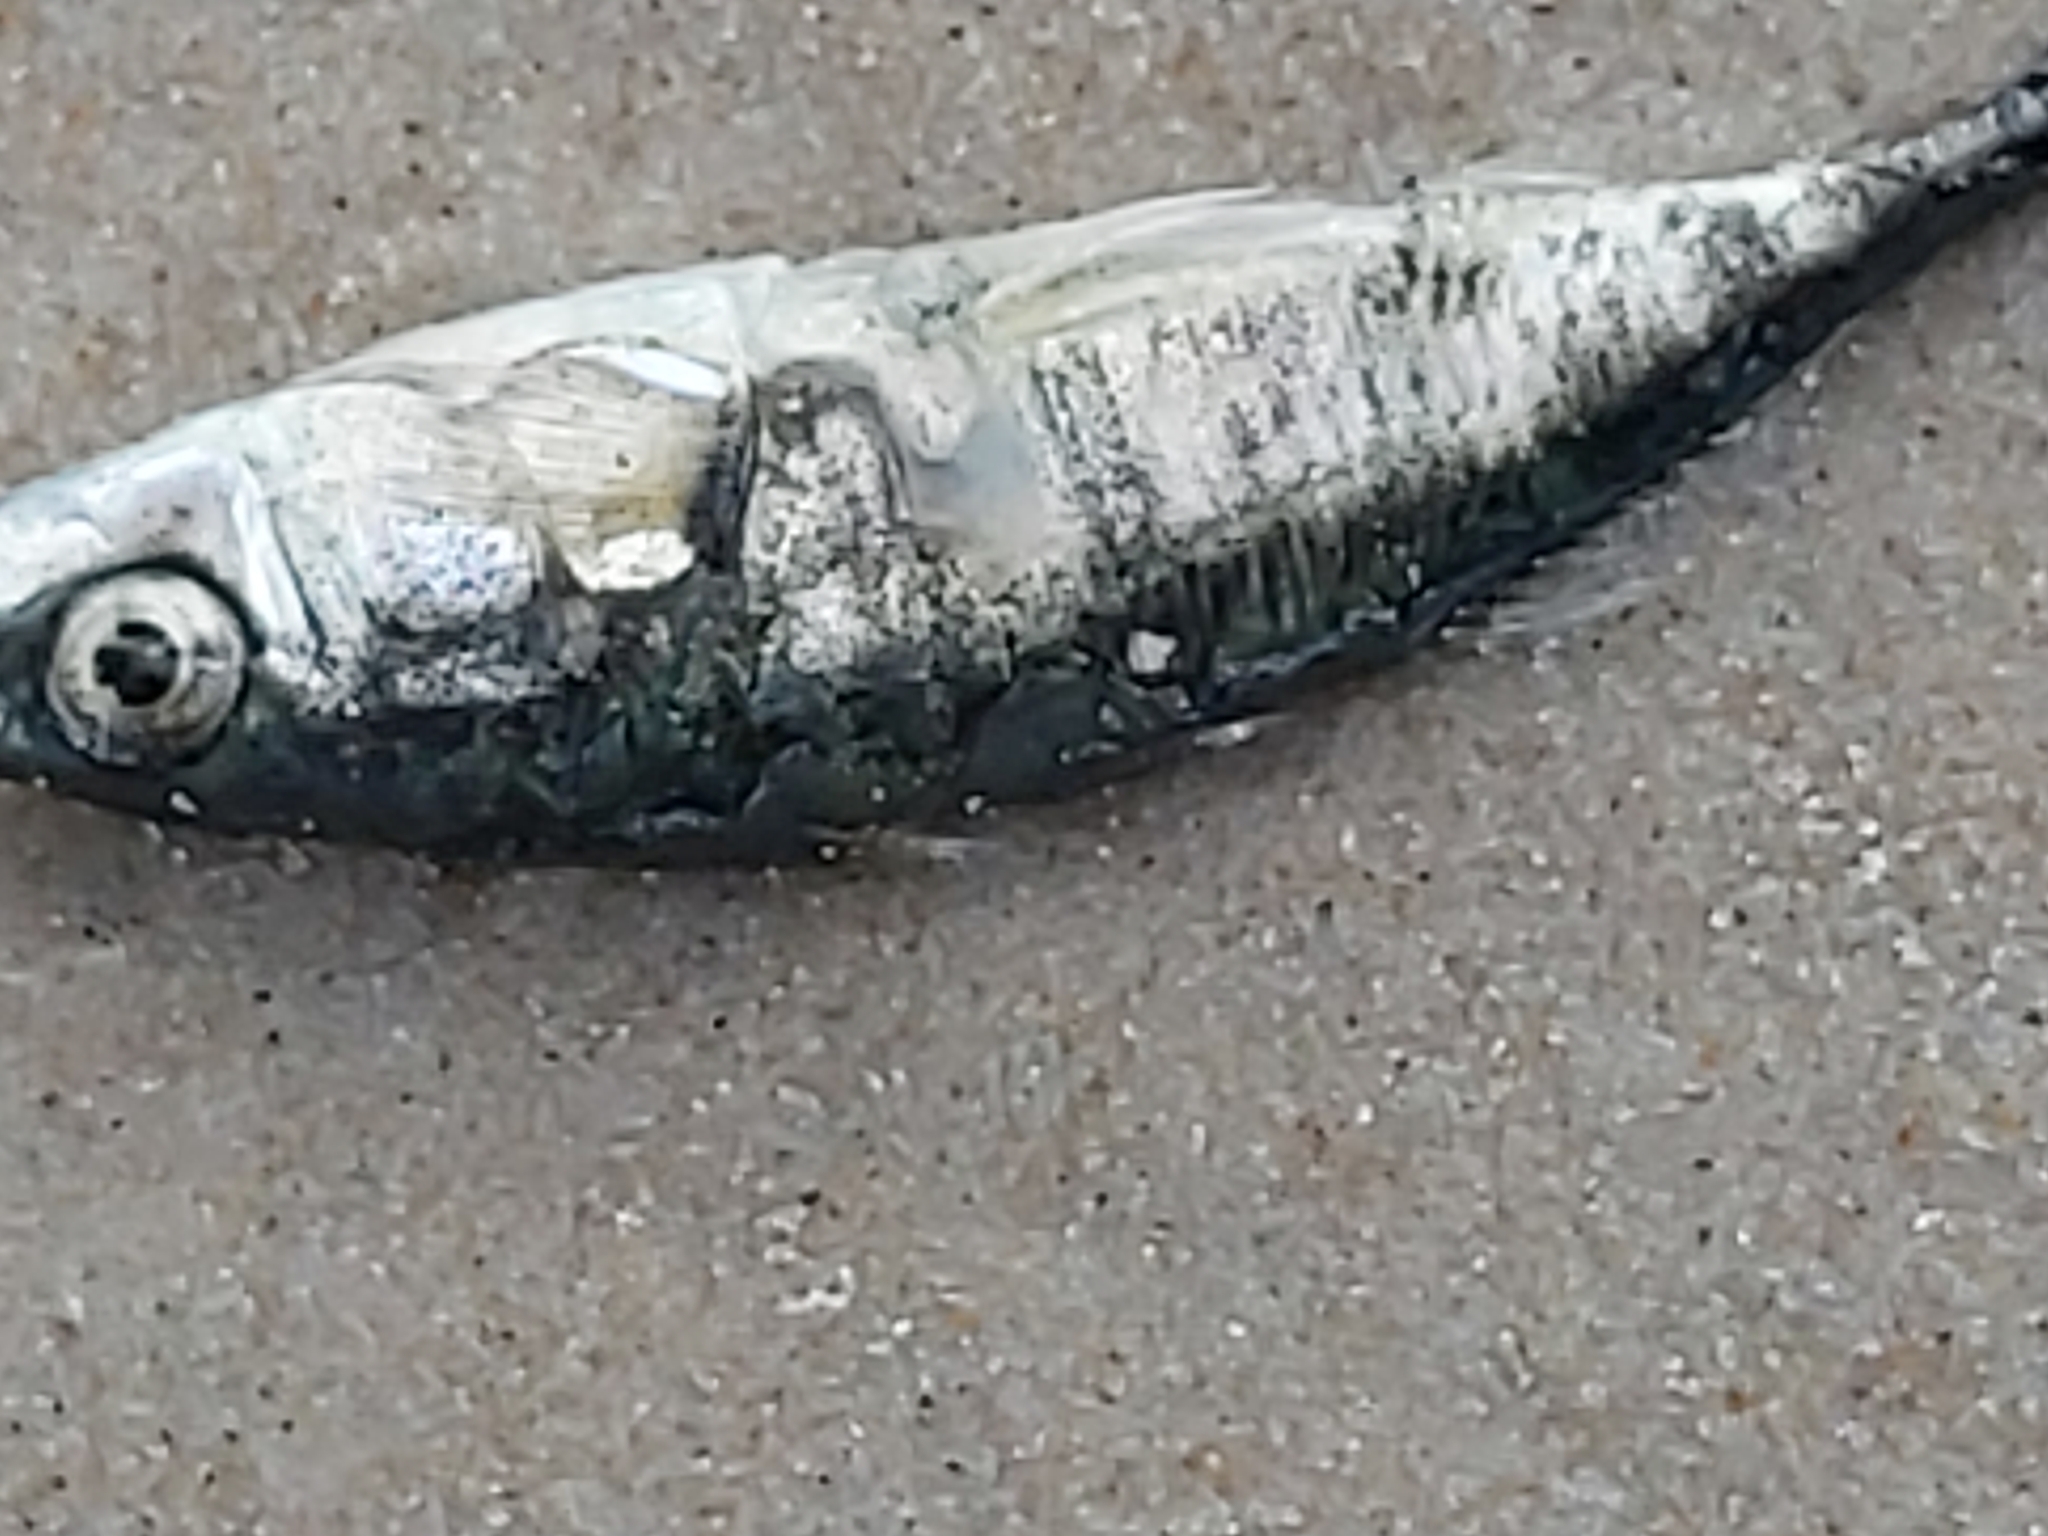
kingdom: Animalia
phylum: Chordata
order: Gasterosteiformes
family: Gasterosteidae
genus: Gasterosteus
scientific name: Gasterosteus aculeatus
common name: Three-spined stickleback
